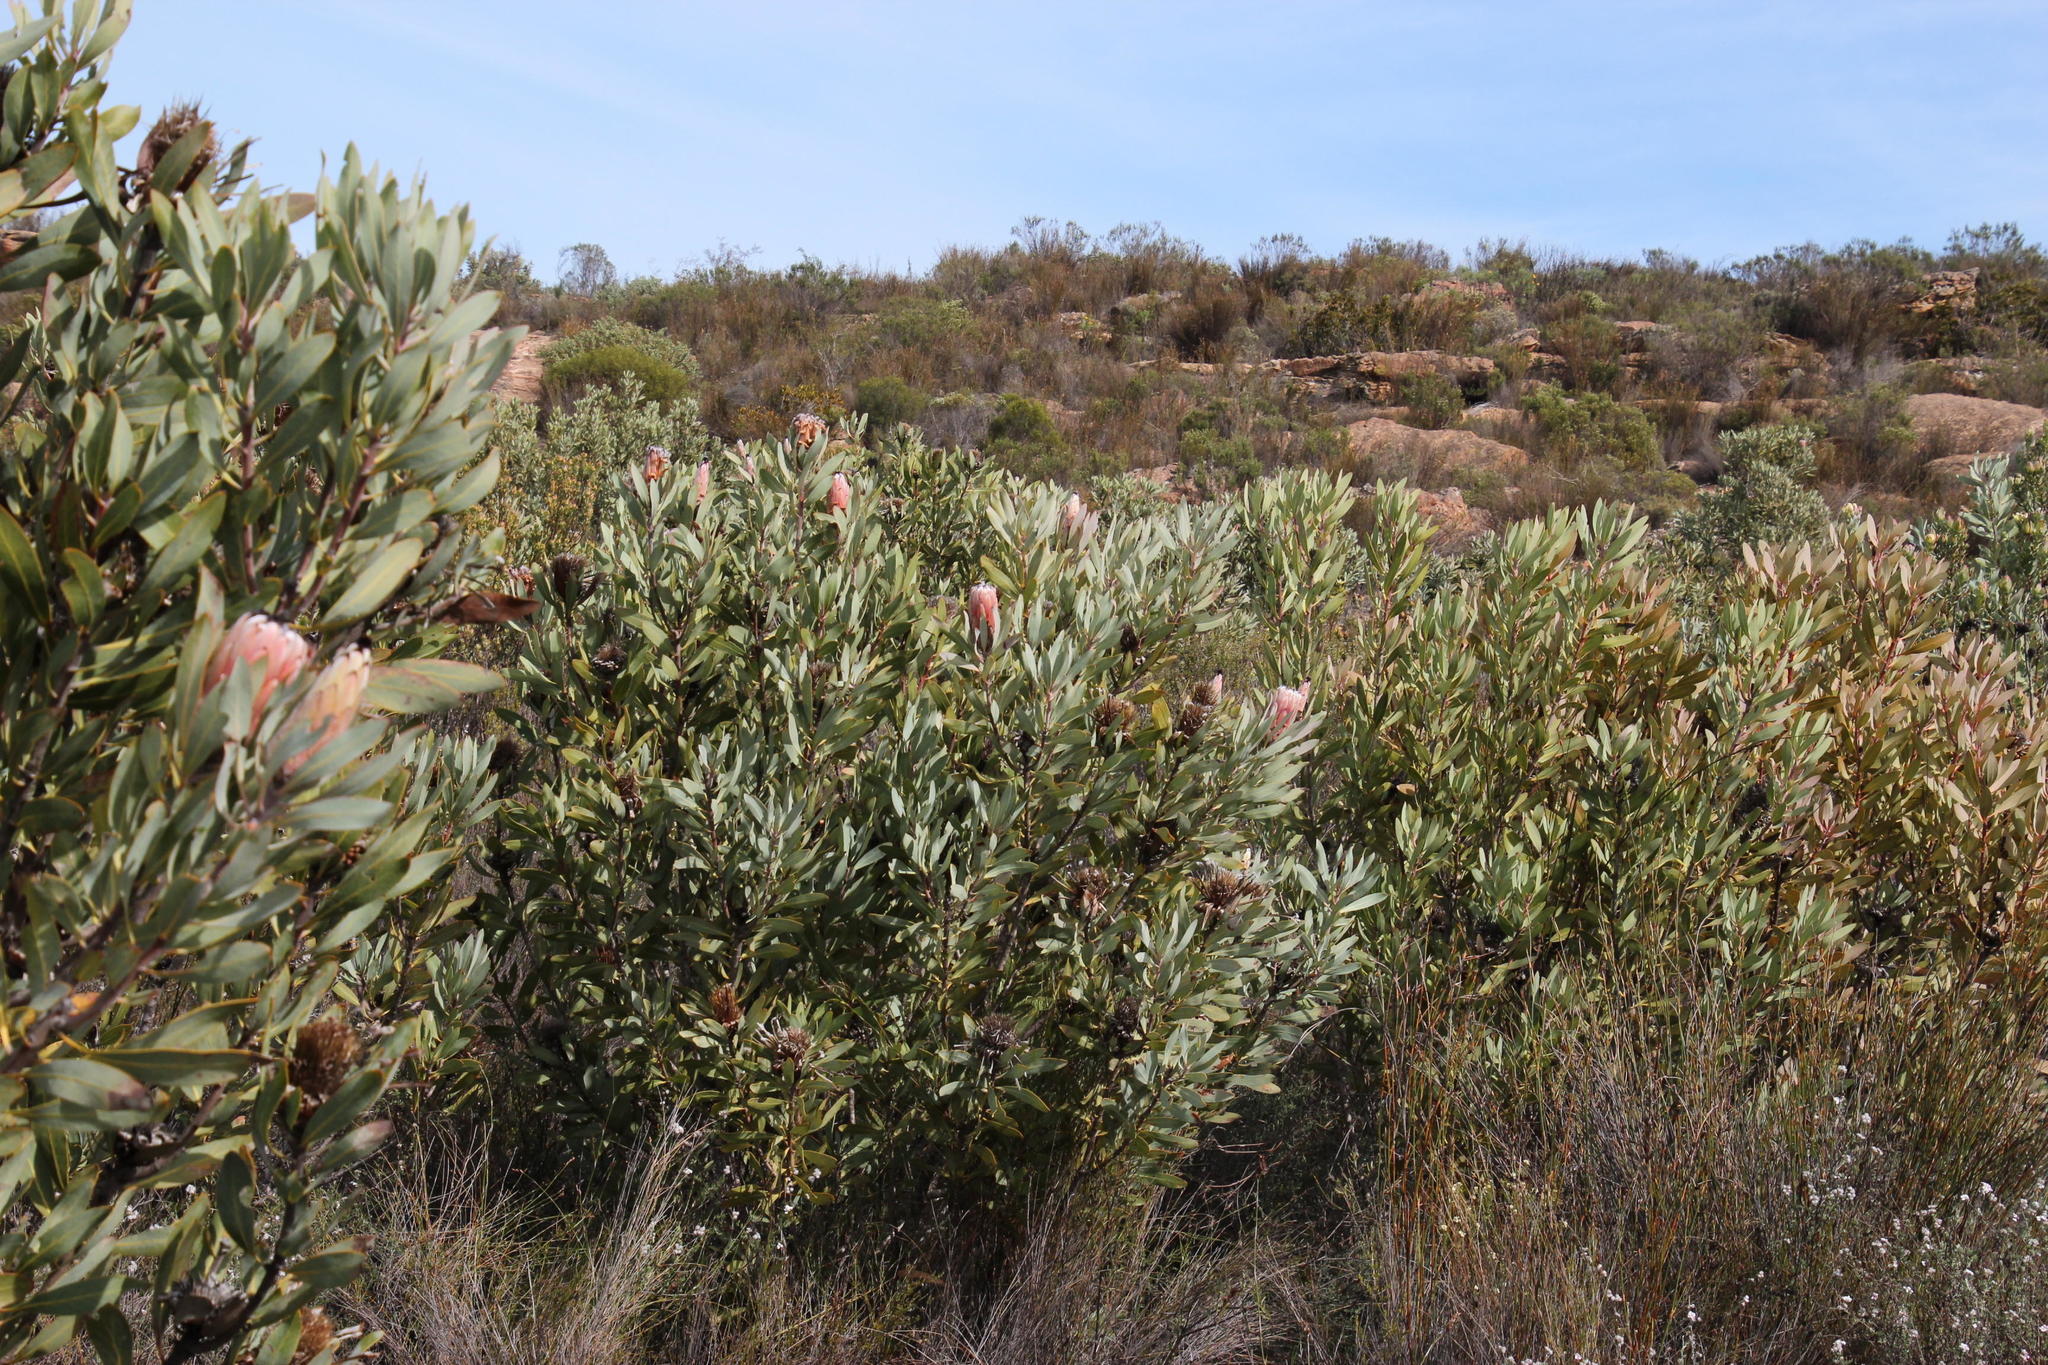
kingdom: Plantae
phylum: Tracheophyta
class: Magnoliopsida
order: Proteales
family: Proteaceae
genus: Protea
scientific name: Protea laurifolia
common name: Grey-leaf sugarbsh
